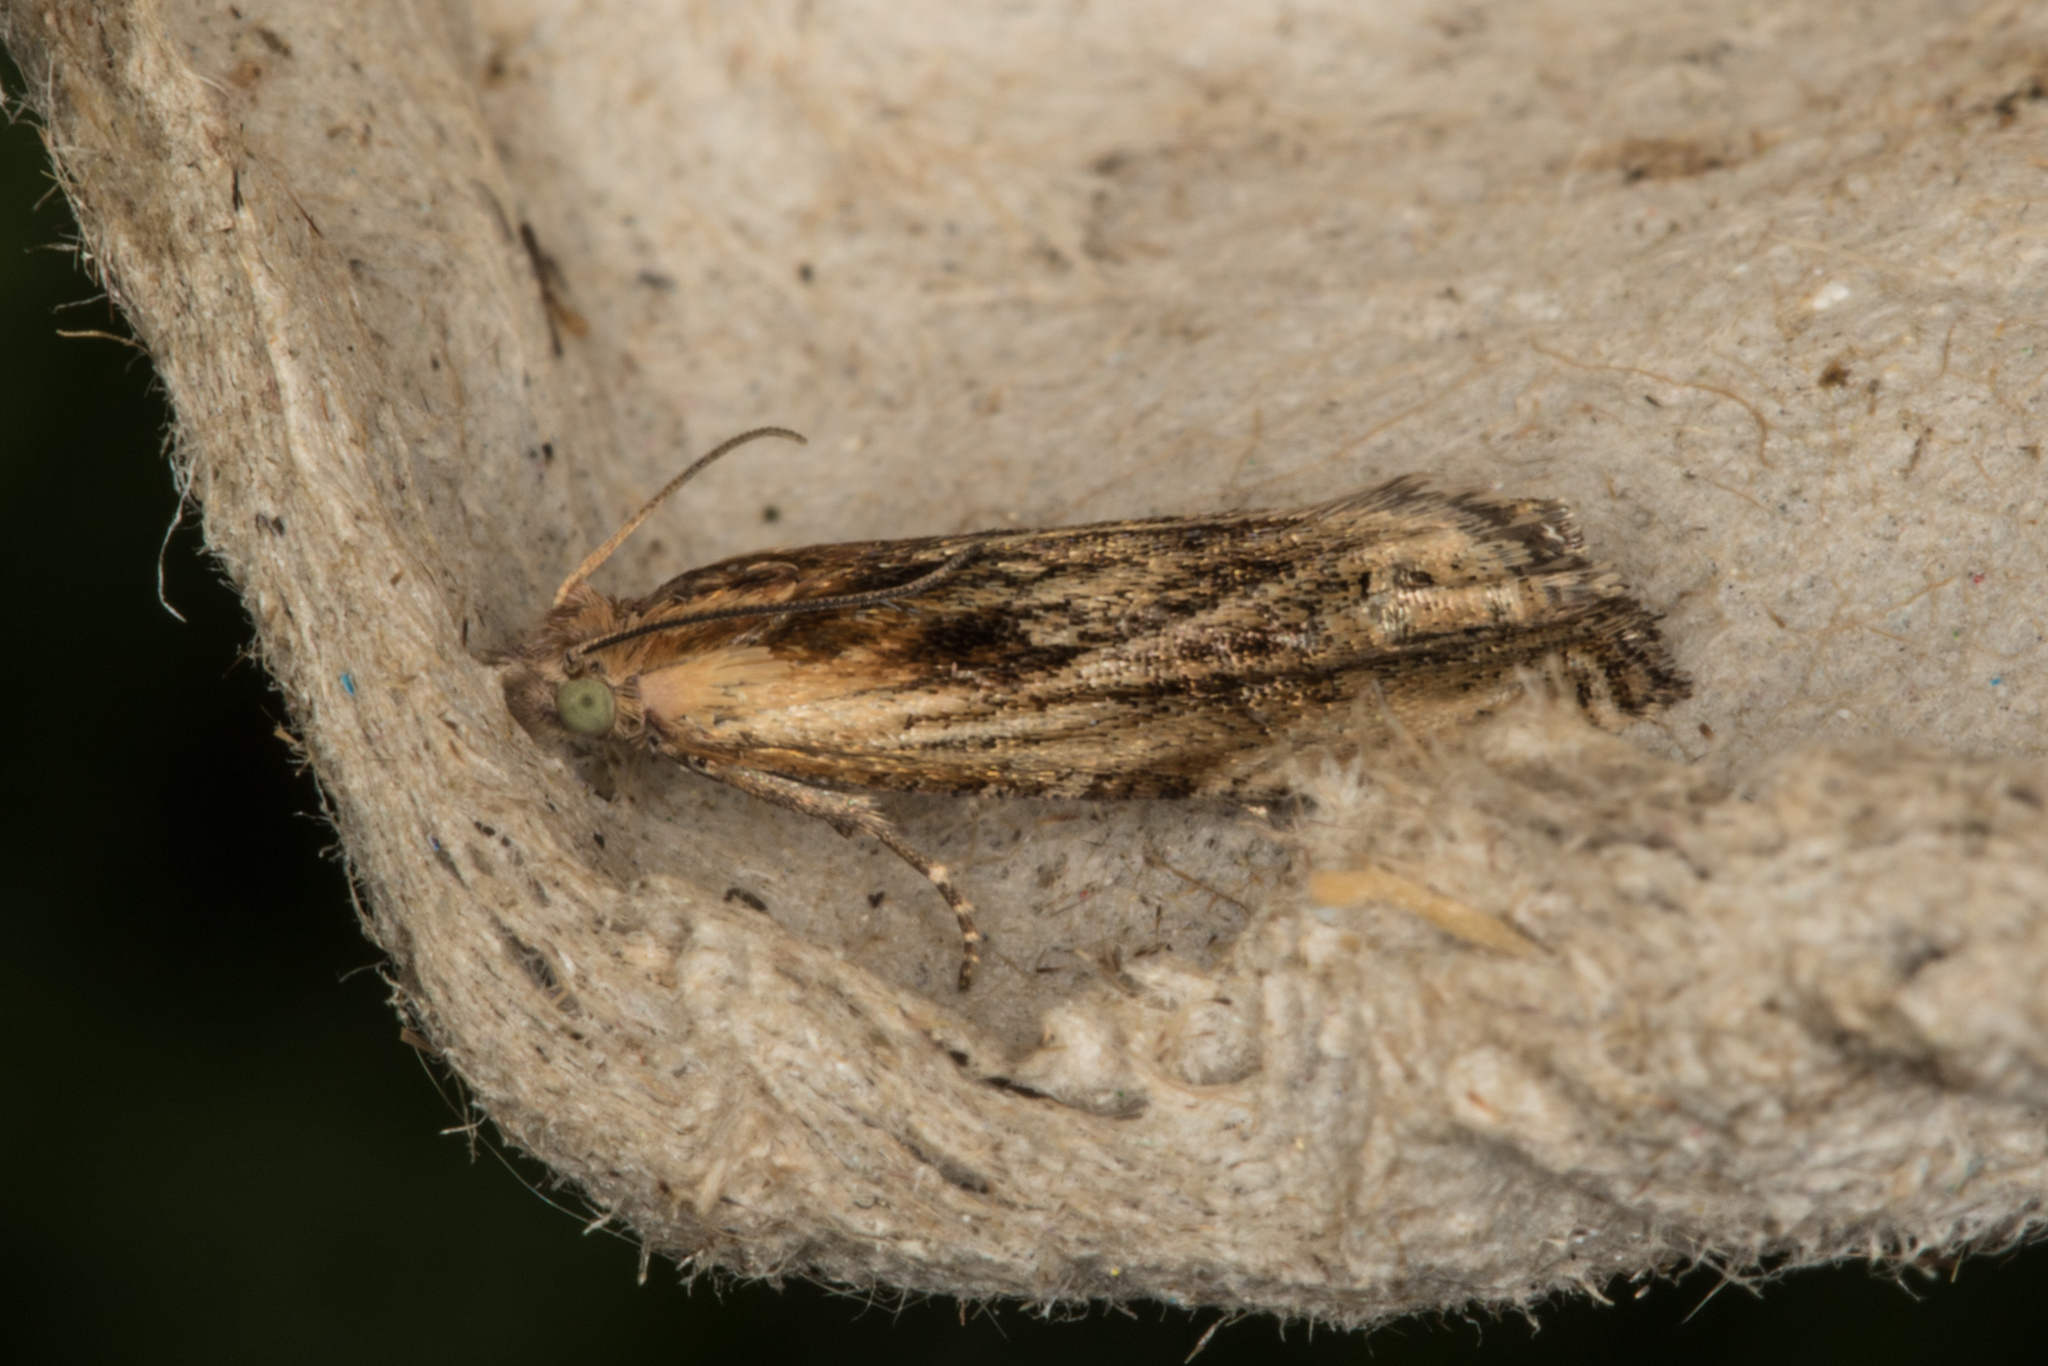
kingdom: Animalia
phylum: Arthropoda
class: Insecta
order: Lepidoptera
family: Tortricidae
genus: Eucosma
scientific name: Eucosma cana
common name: Hoary belle
